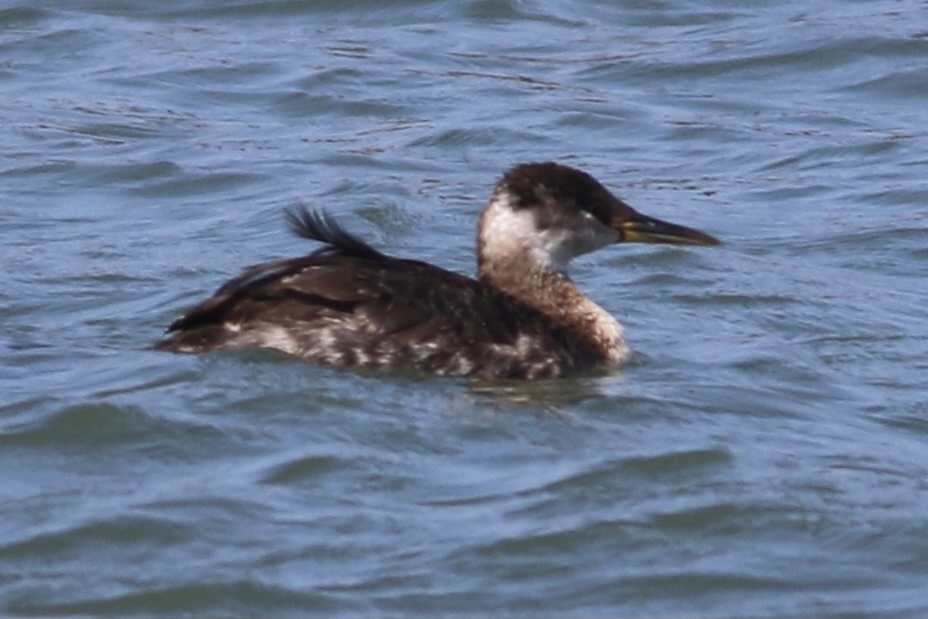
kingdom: Animalia
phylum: Chordata
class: Aves
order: Podicipediformes
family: Podicipedidae
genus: Podiceps
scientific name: Podiceps grisegena
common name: Red-necked grebe
